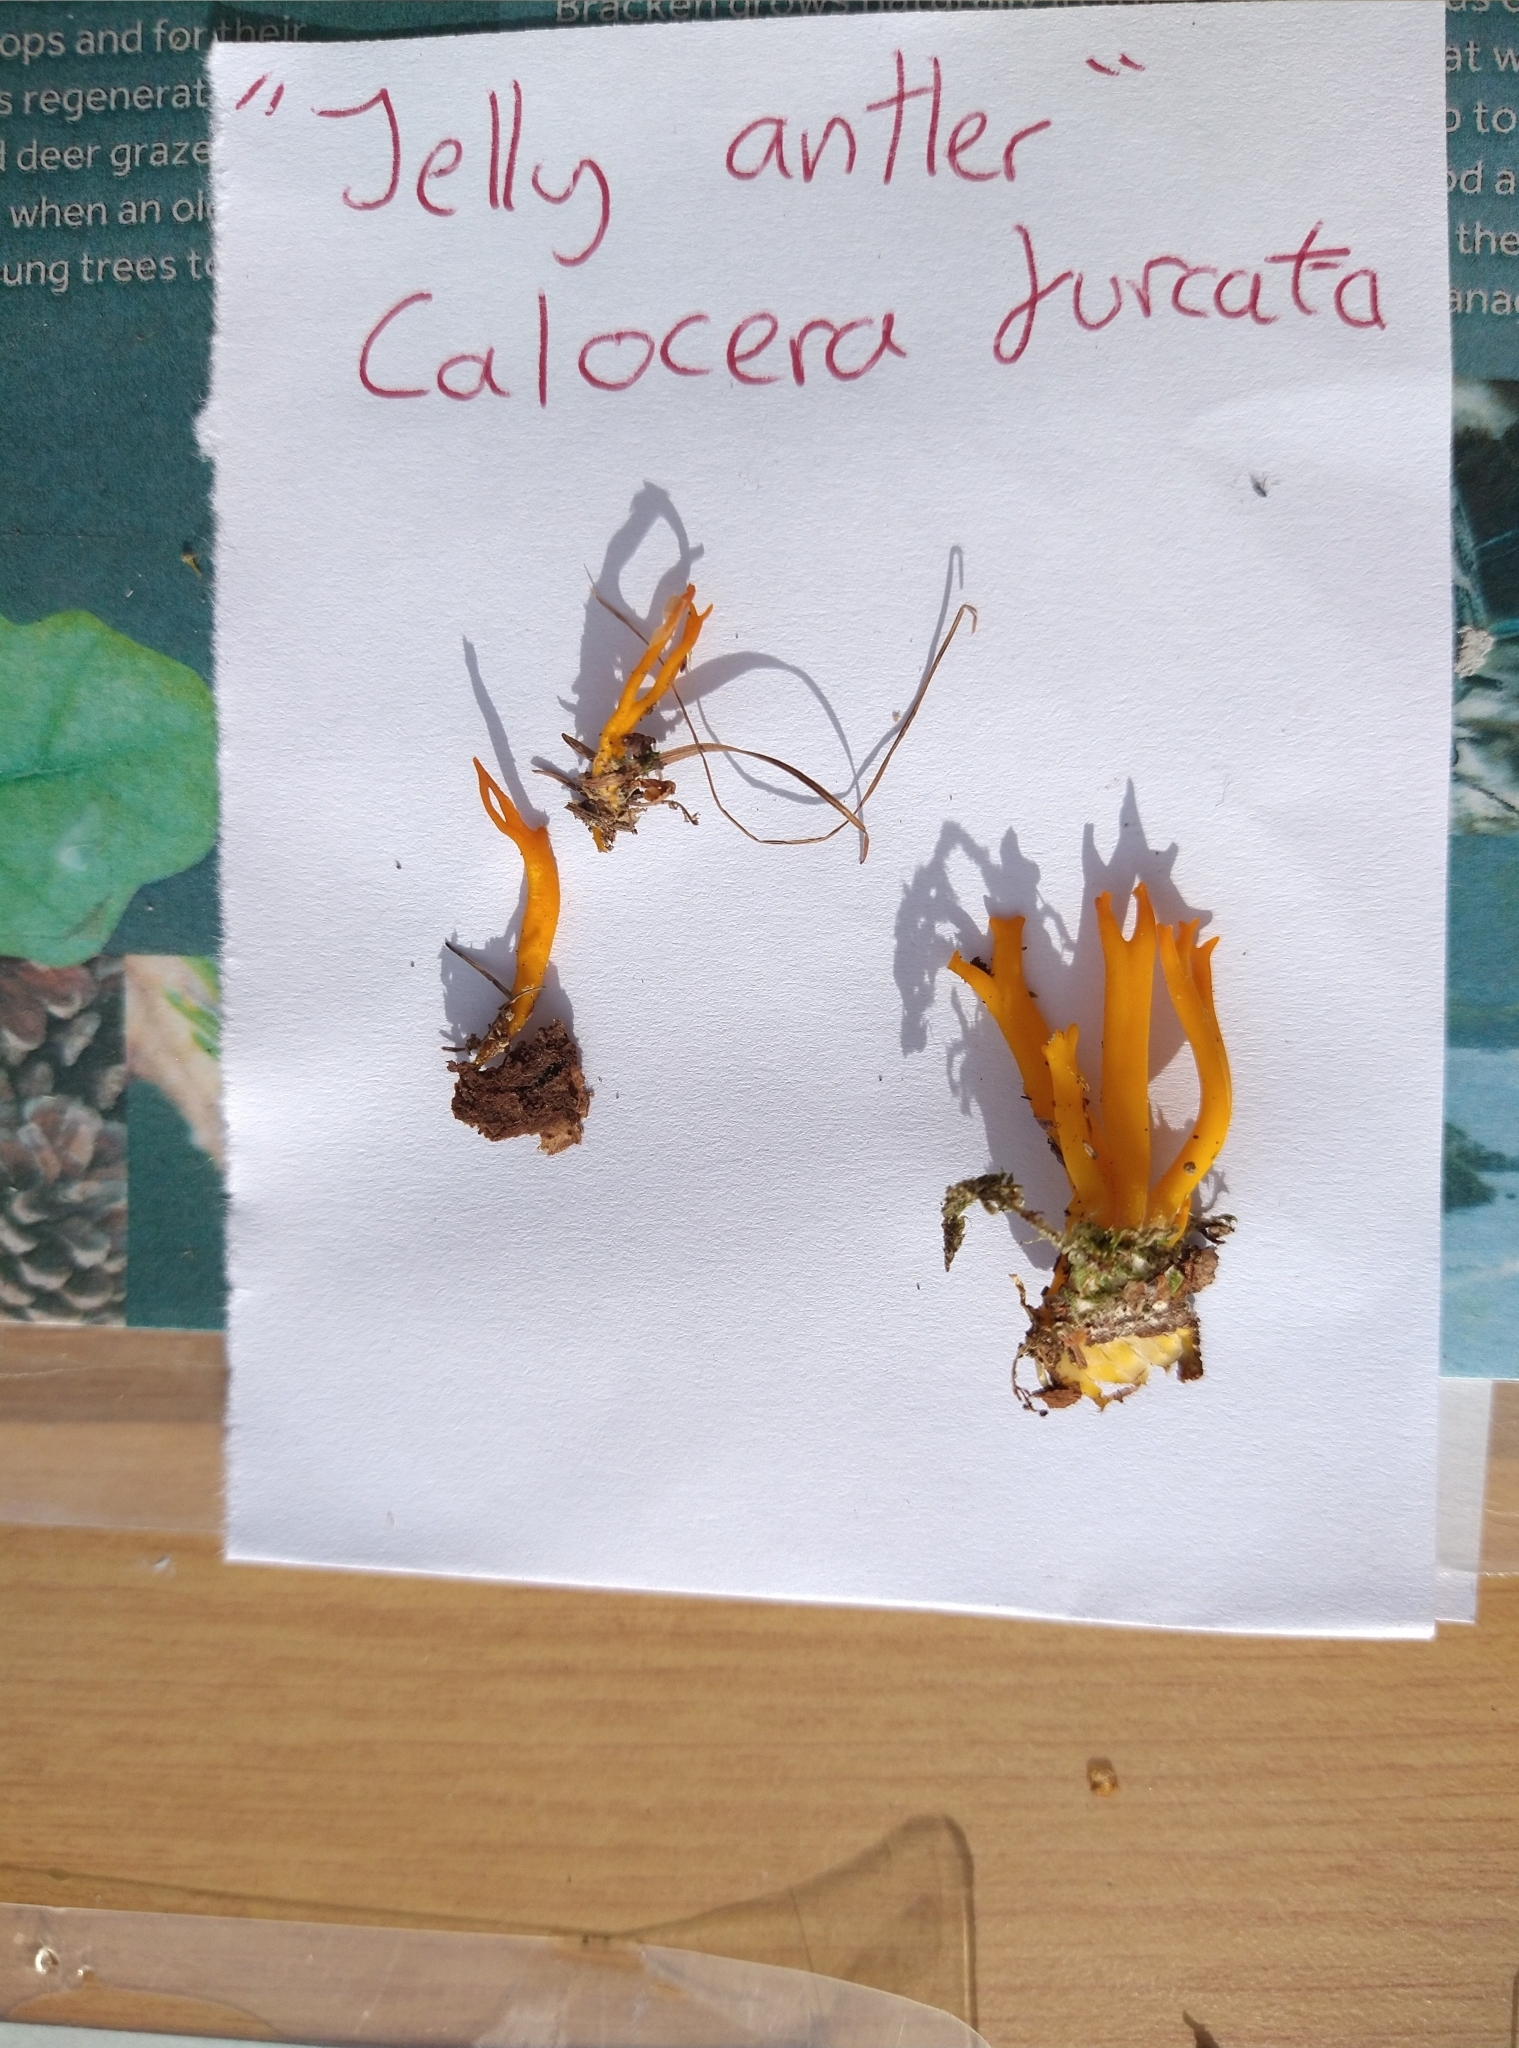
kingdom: Fungi
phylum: Basidiomycota
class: Dacrymycetes
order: Dacrymycetales
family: Dacrymycetaceae
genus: Calocera
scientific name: Calocera viscosa
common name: Yellow stagshorn
